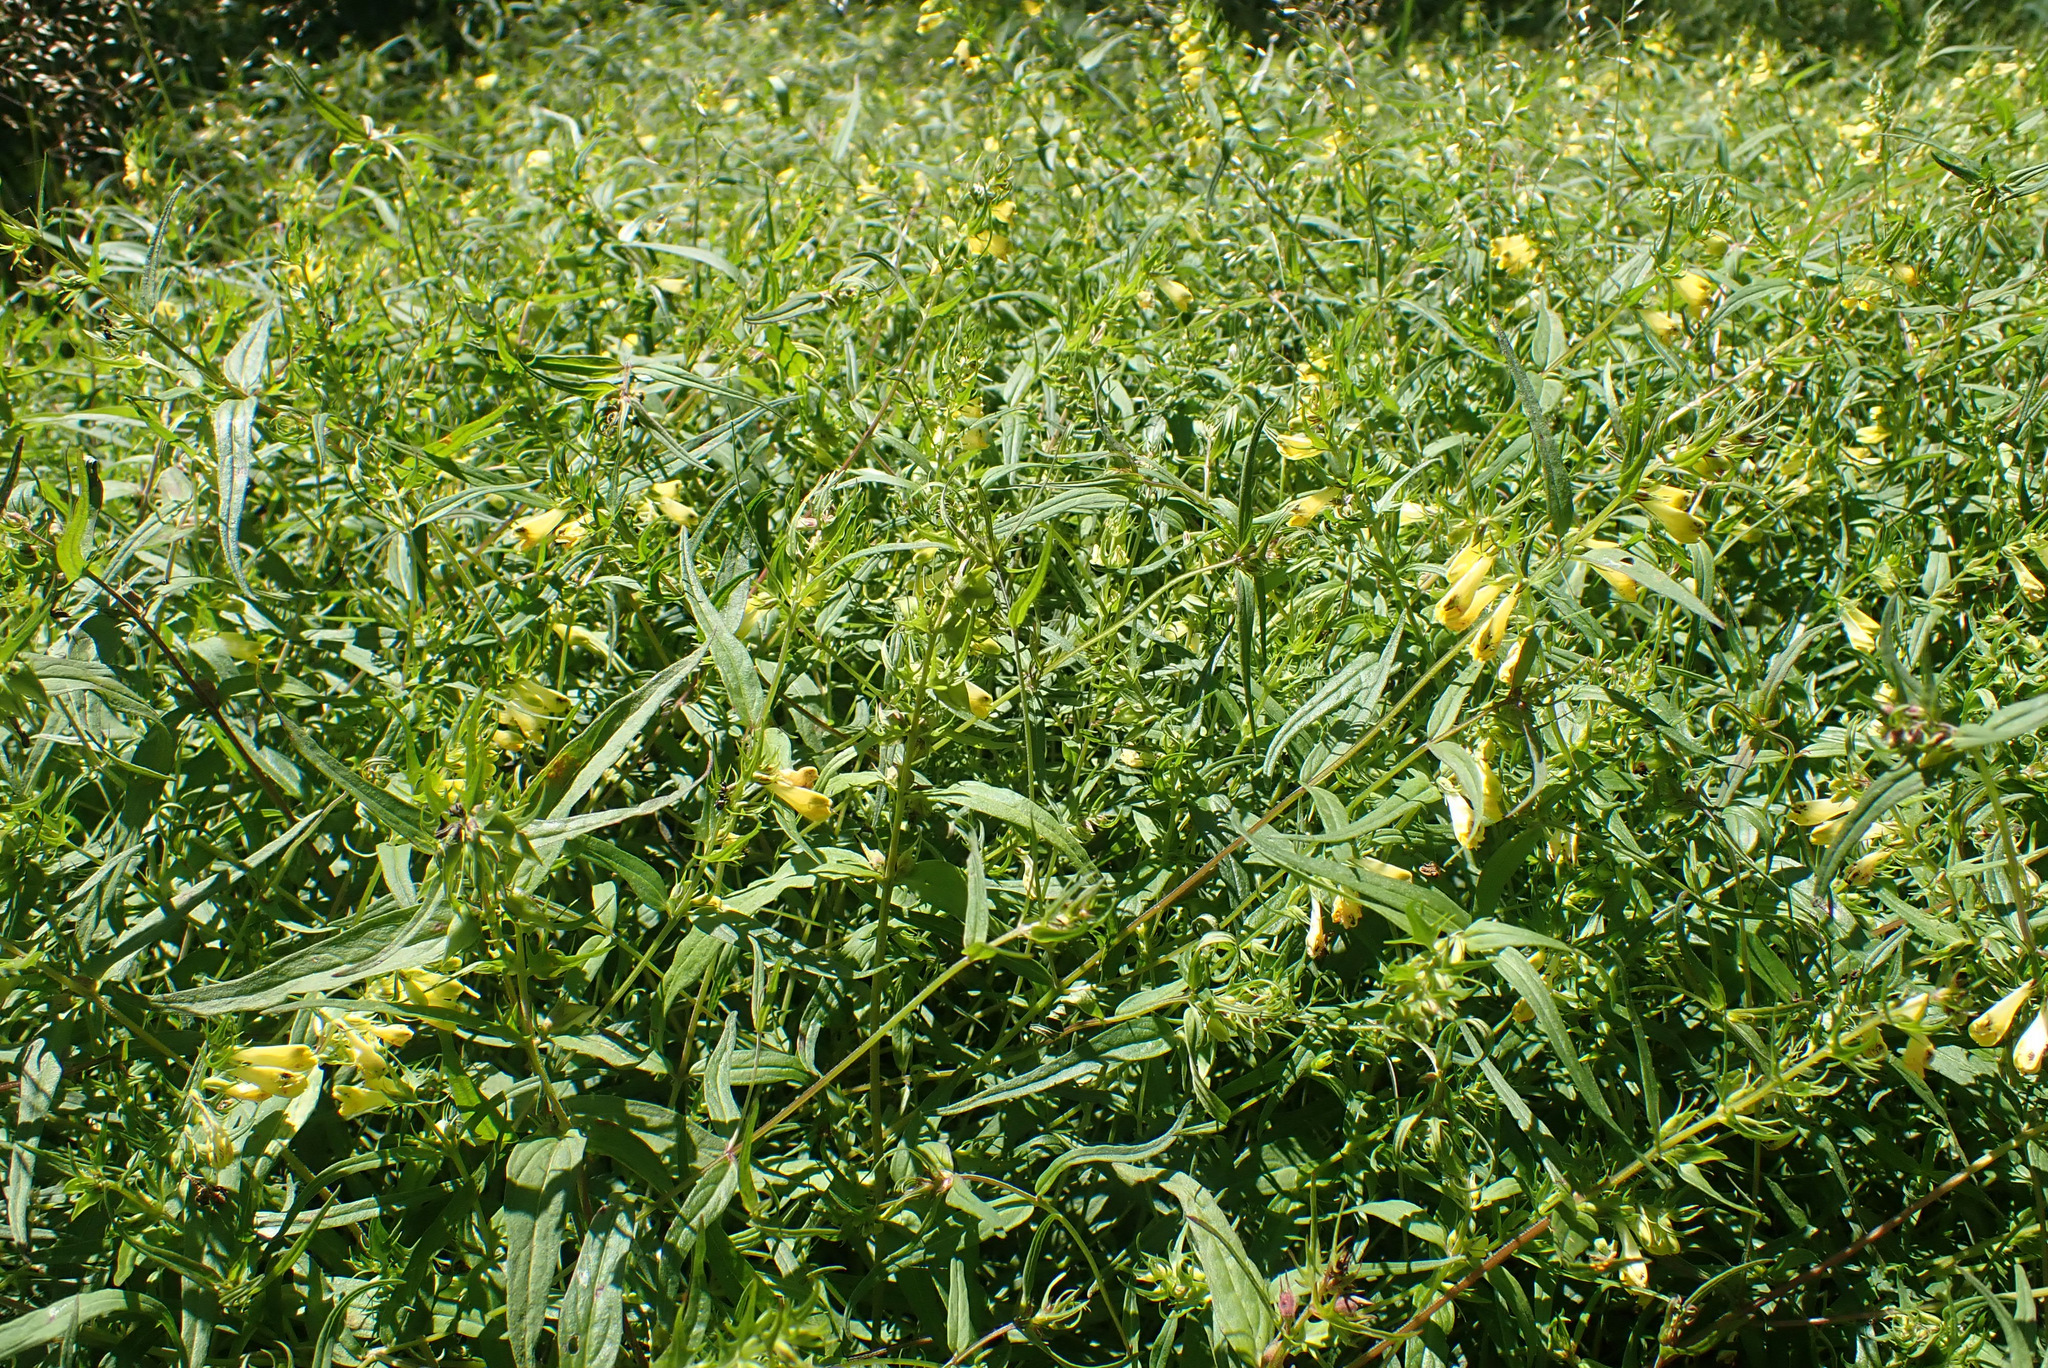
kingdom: Plantae
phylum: Tracheophyta
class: Magnoliopsida
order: Lamiales
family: Orobanchaceae
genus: Melampyrum
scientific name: Melampyrum pratense
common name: Common cow-wheat
